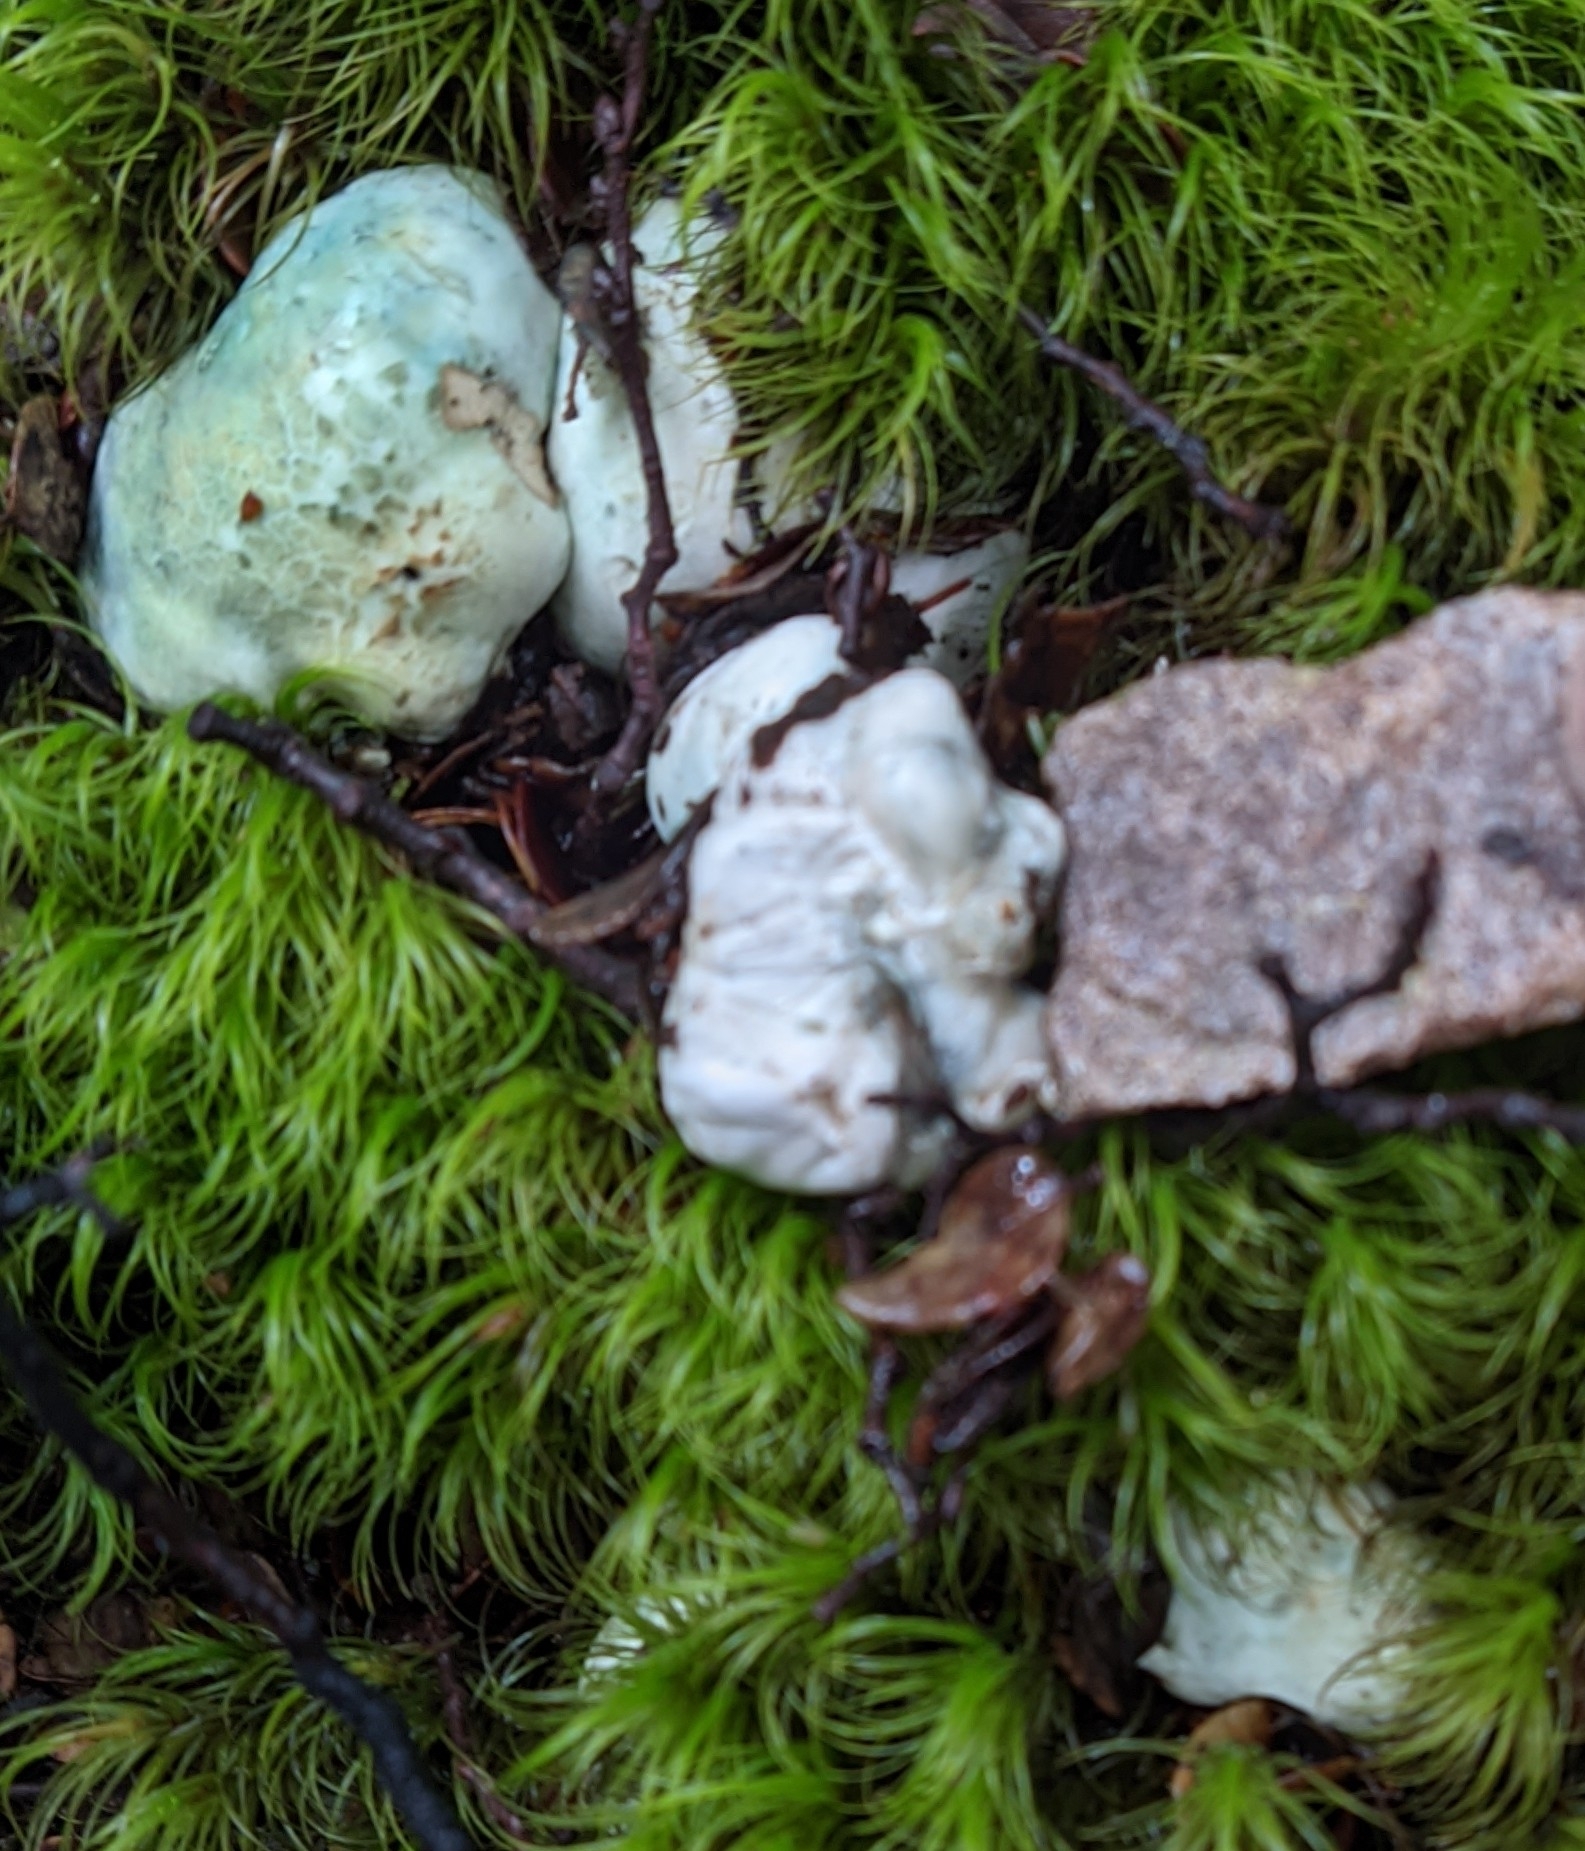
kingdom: Fungi
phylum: Basidiomycota
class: Agaricomycetes
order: Boletales
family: Boletaceae
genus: Leccinum
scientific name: Leccinum pachyderme
